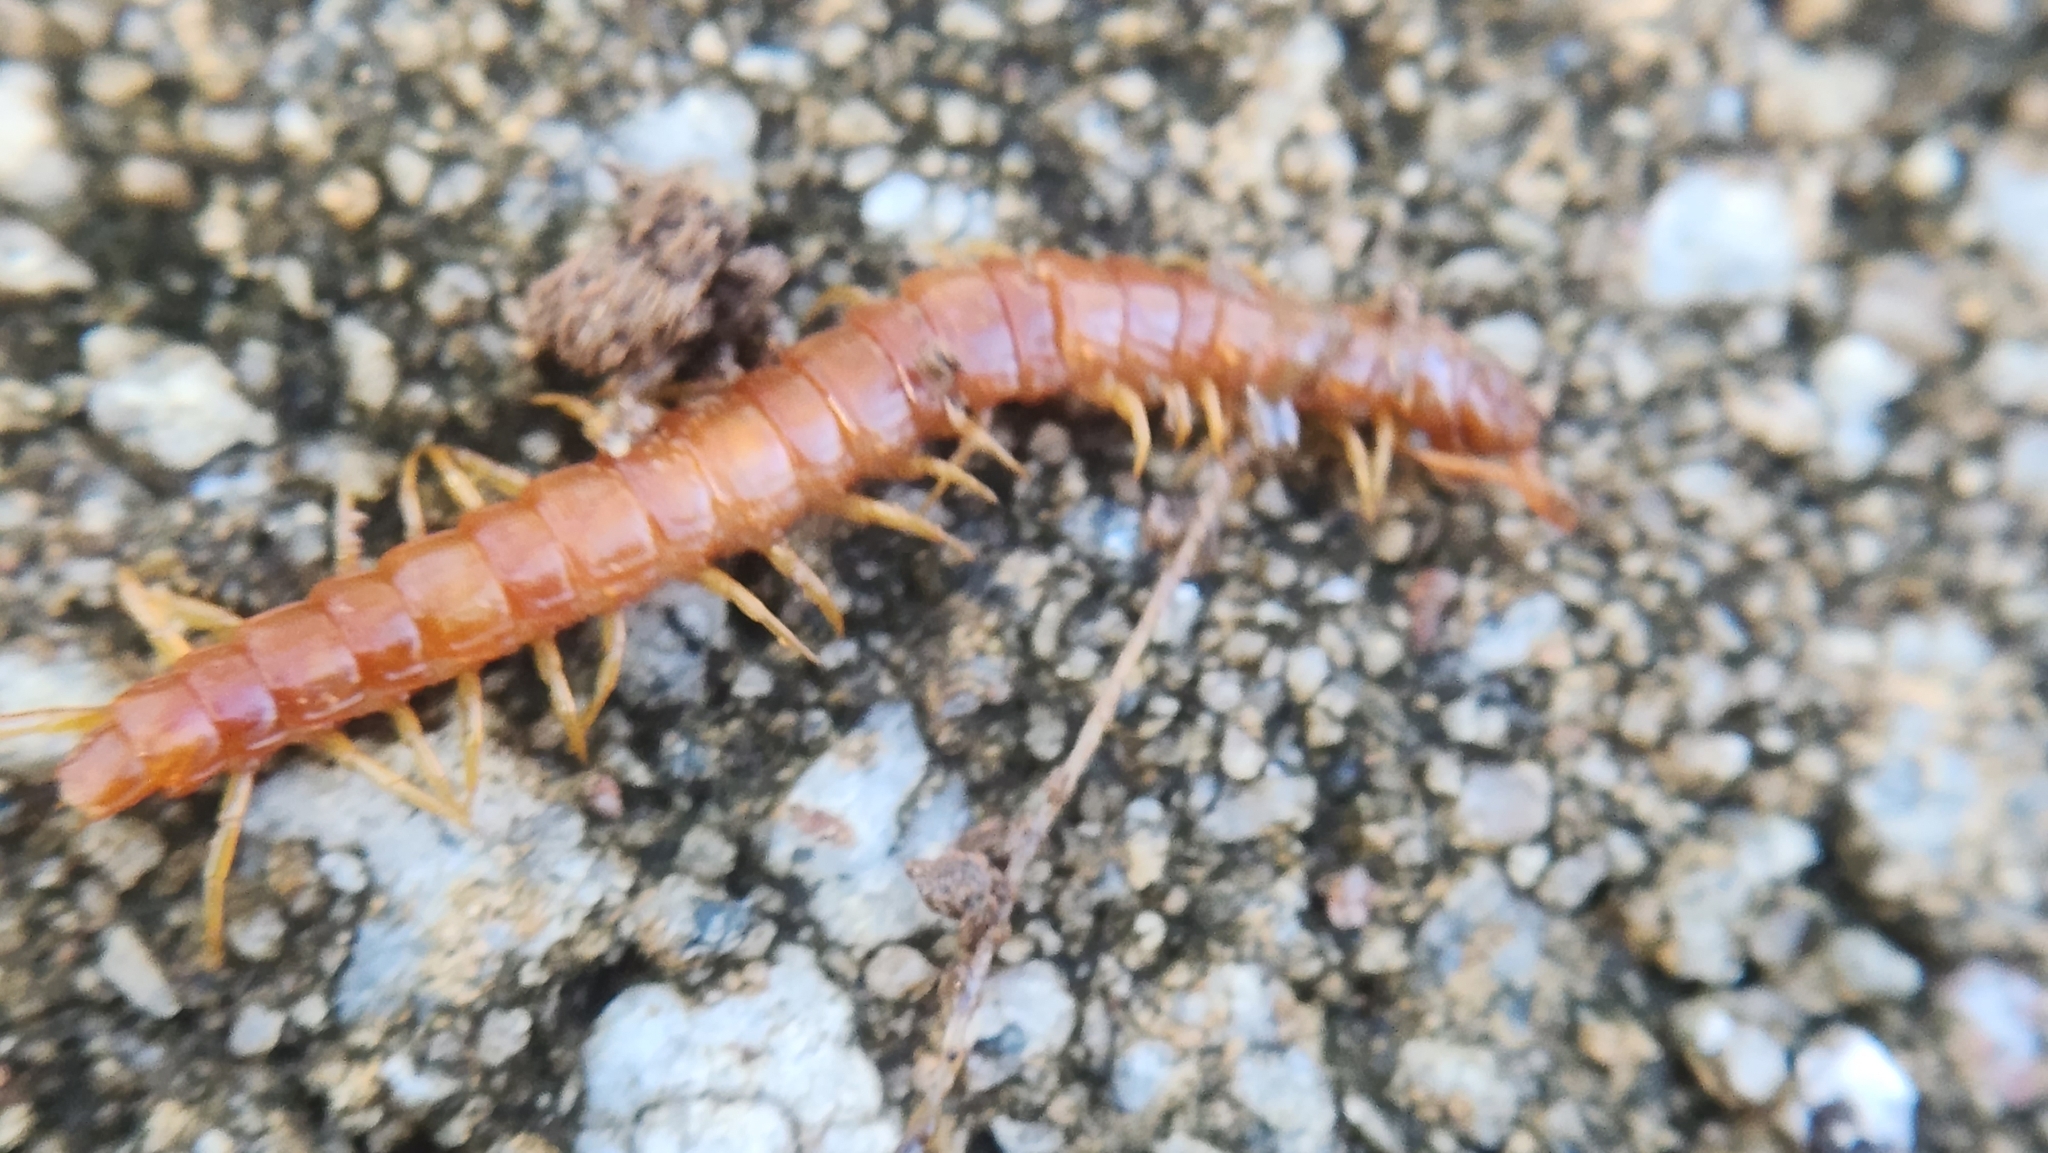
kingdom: Animalia
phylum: Arthropoda
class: Chilopoda
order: Scolopendromorpha
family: Scolopocryptopidae
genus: Scolopocryptops
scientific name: Scolopocryptops sexspinosus
